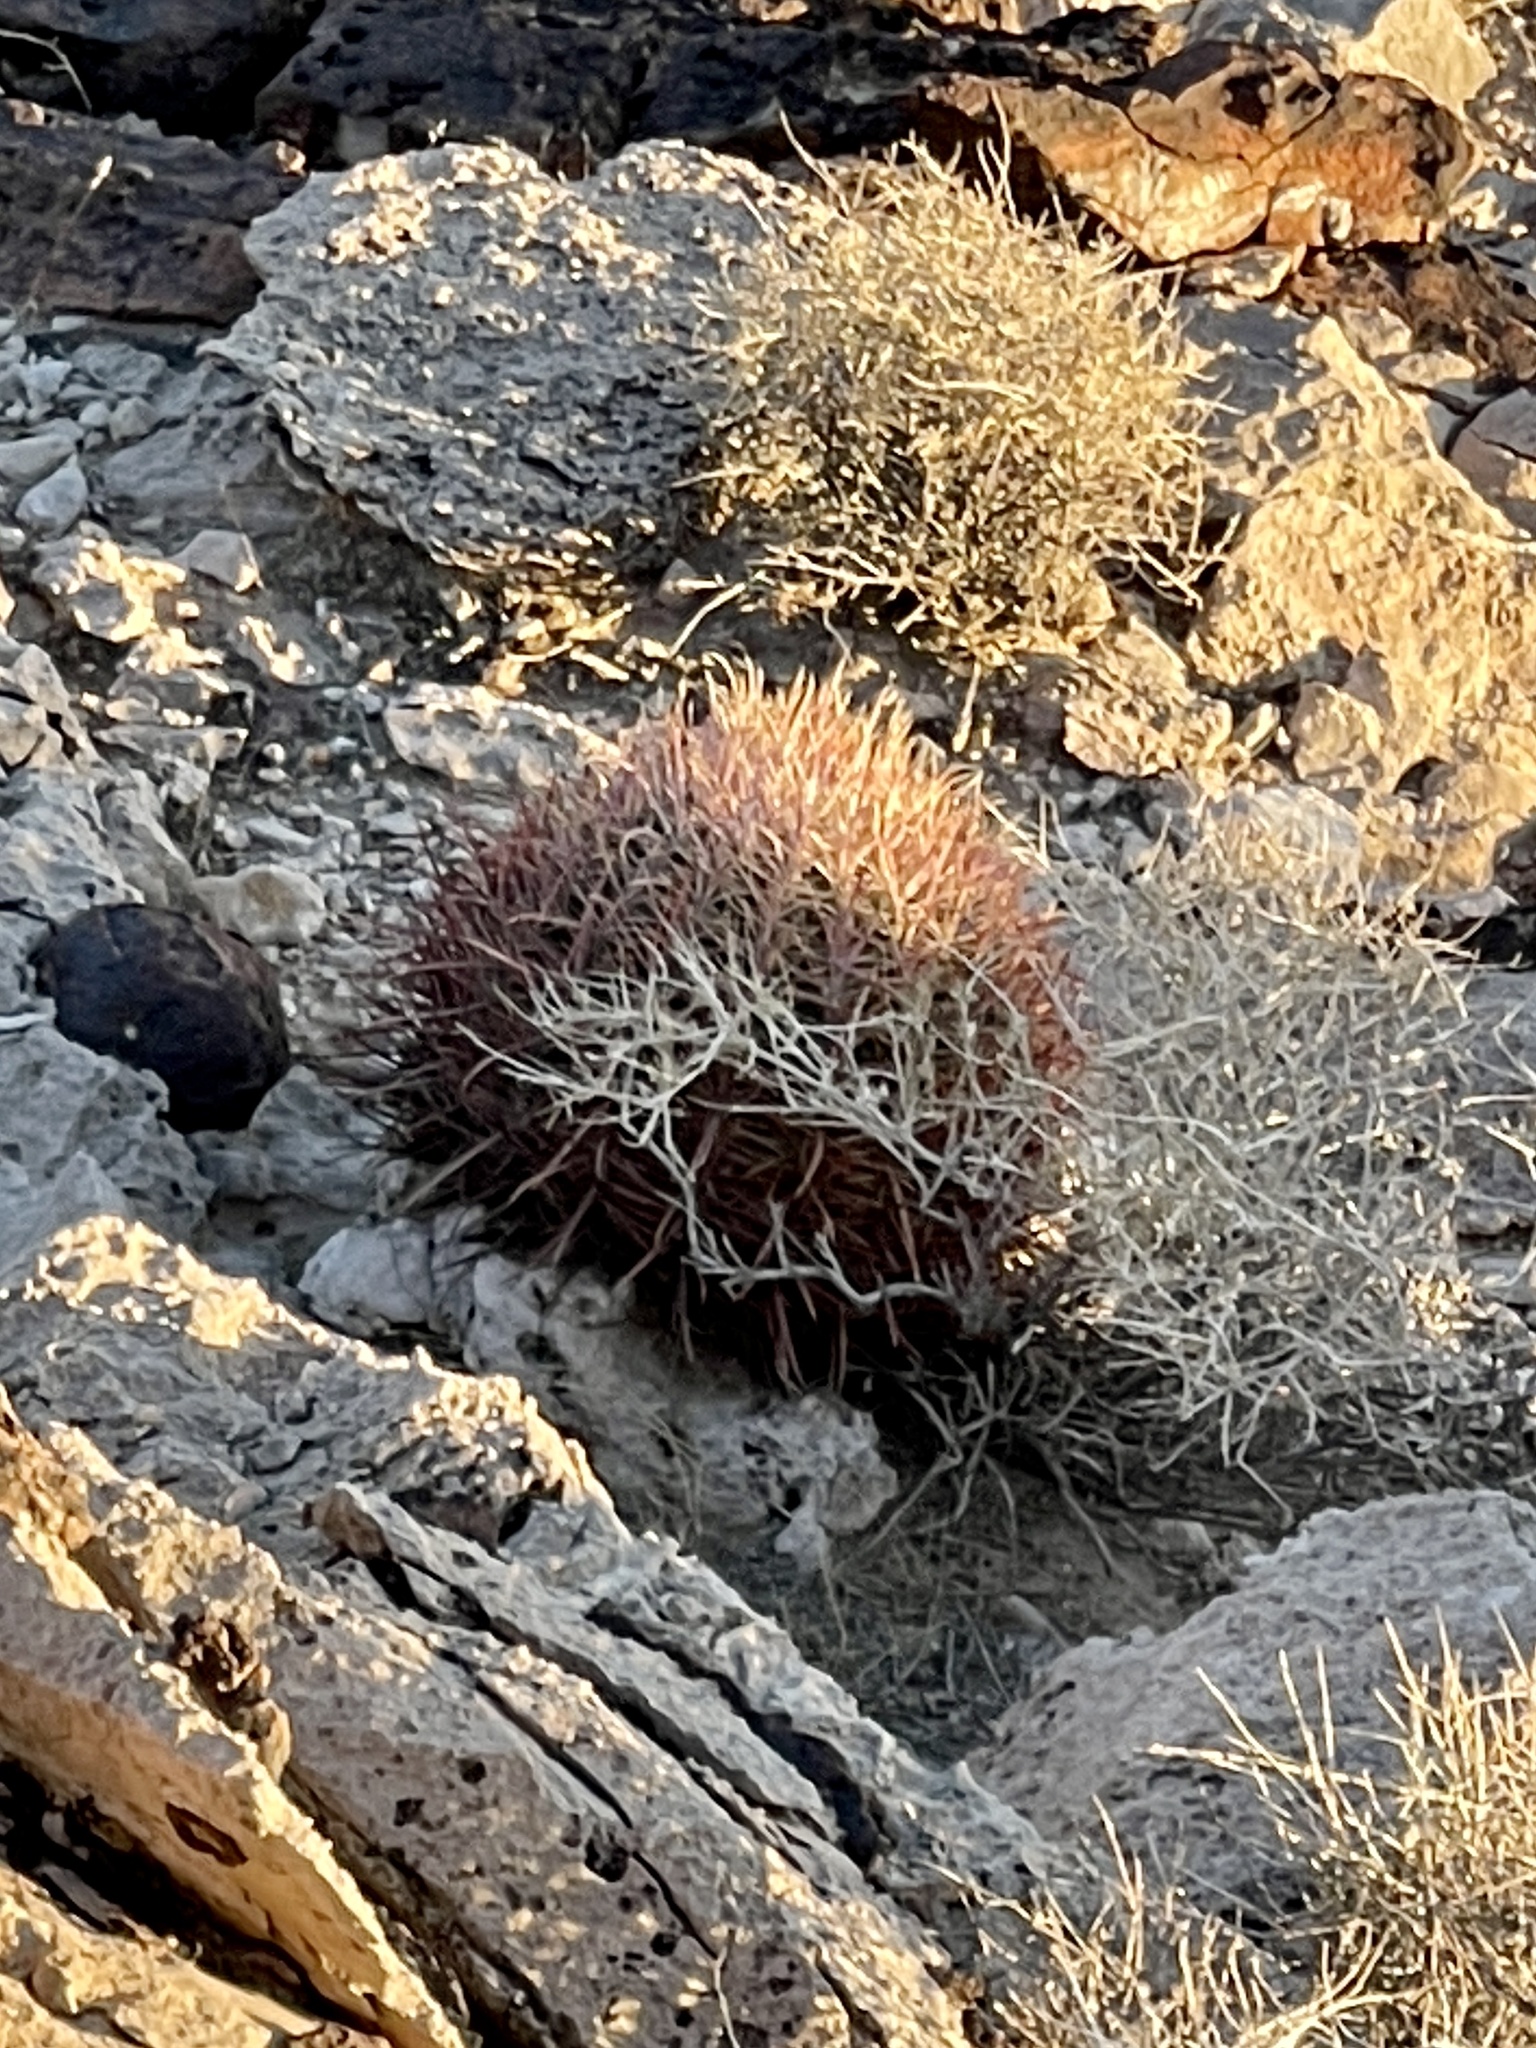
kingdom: Plantae
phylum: Tracheophyta
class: Magnoliopsida
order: Caryophyllales
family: Cactaceae
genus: Ferocactus
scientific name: Ferocactus cylindraceus
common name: California barrel cactus
